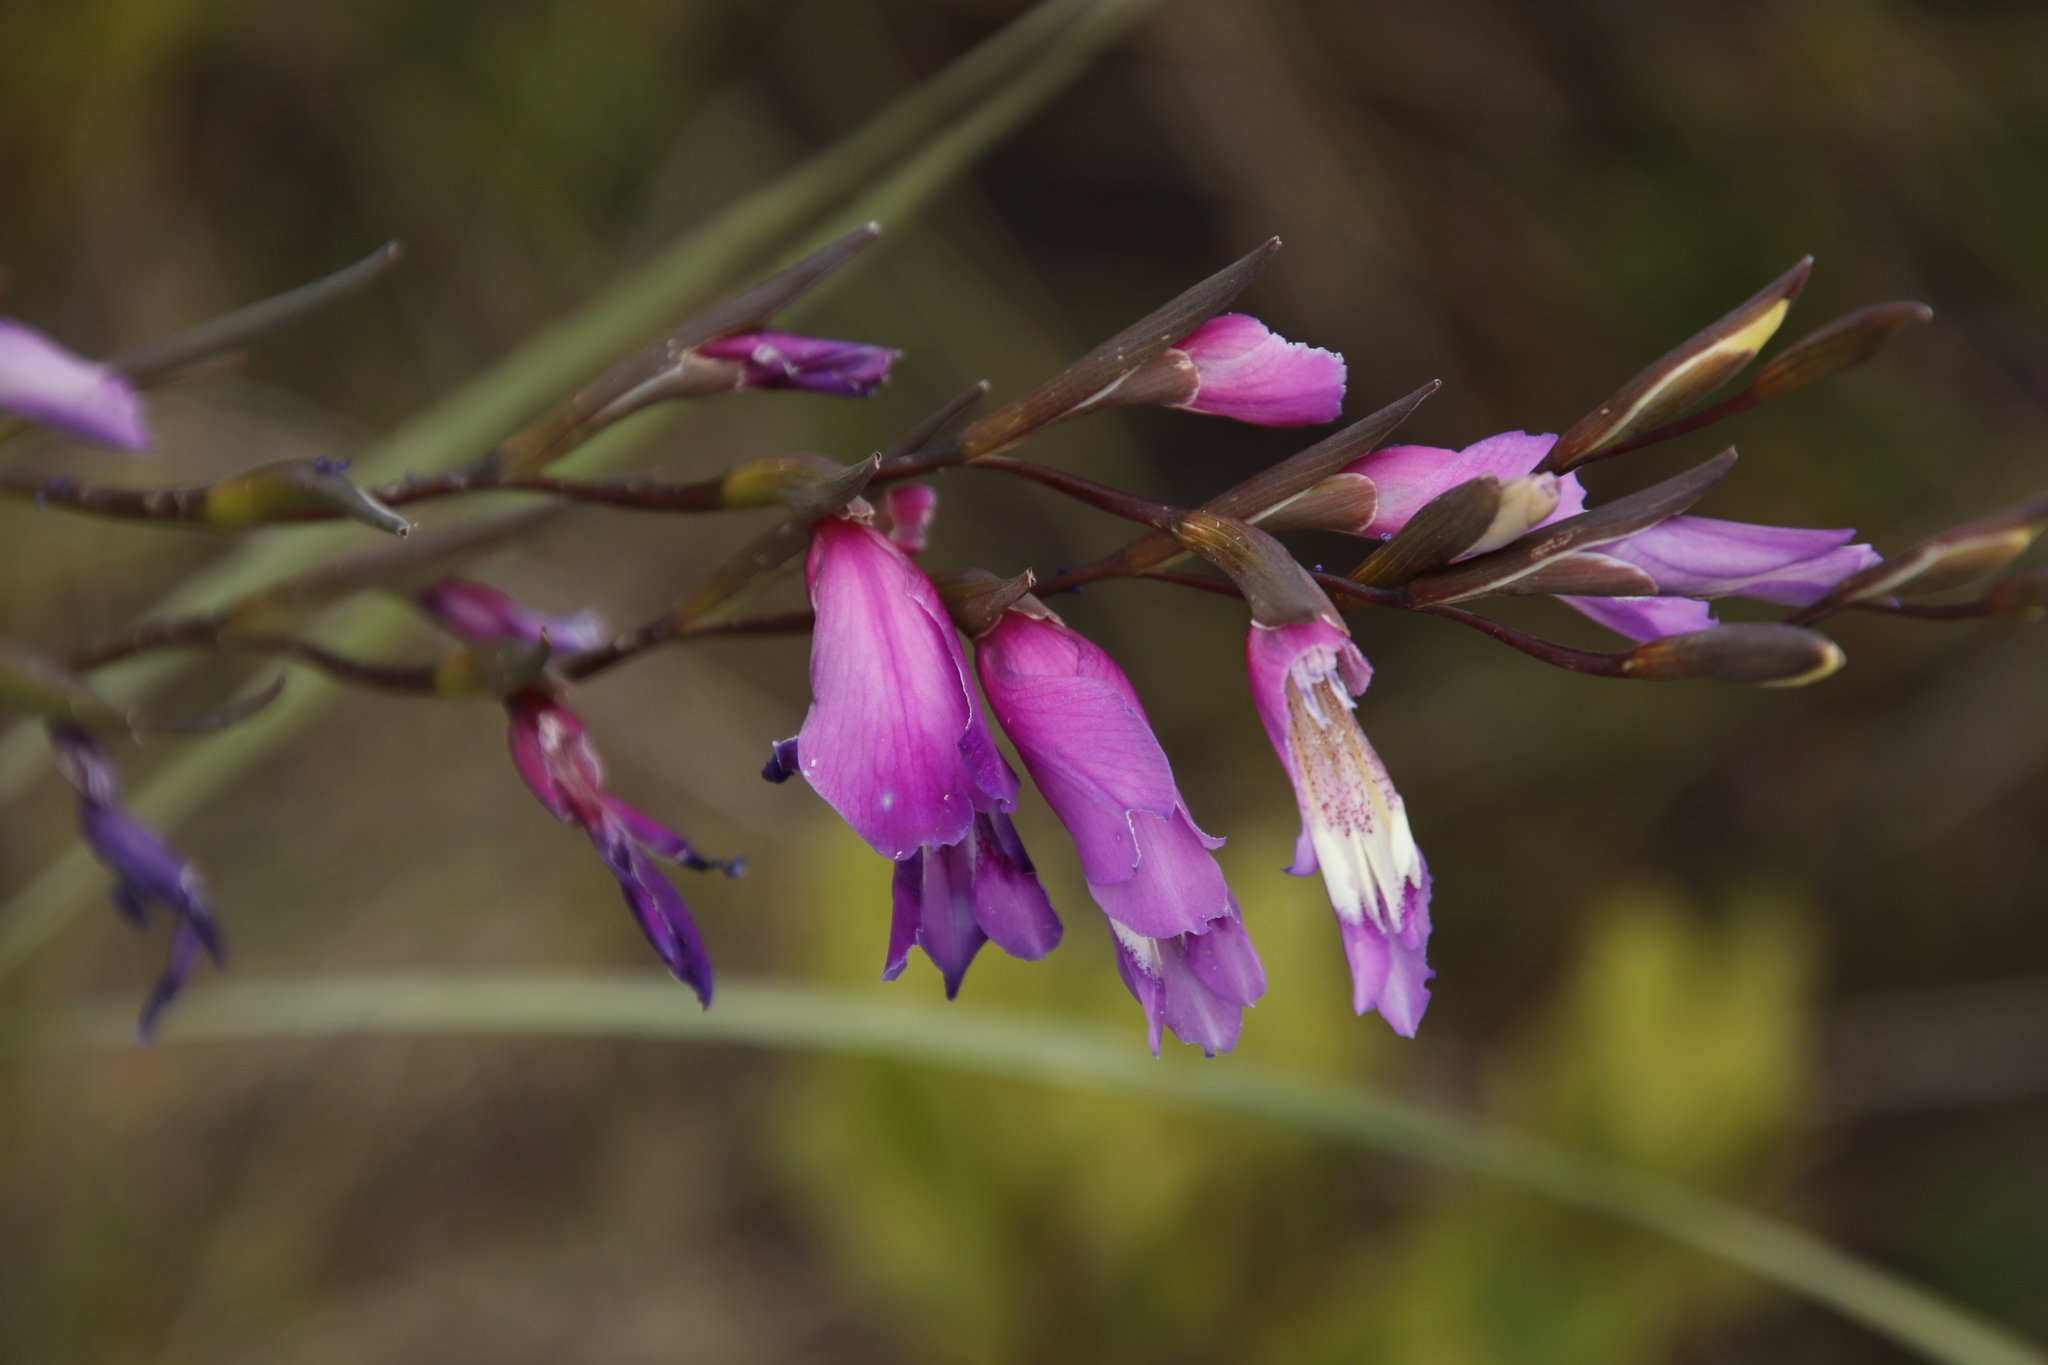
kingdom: Plantae
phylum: Tracheophyta
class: Liliopsida
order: Asparagales
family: Iridaceae
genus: Gladiolus
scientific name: Gladiolus carinatus
